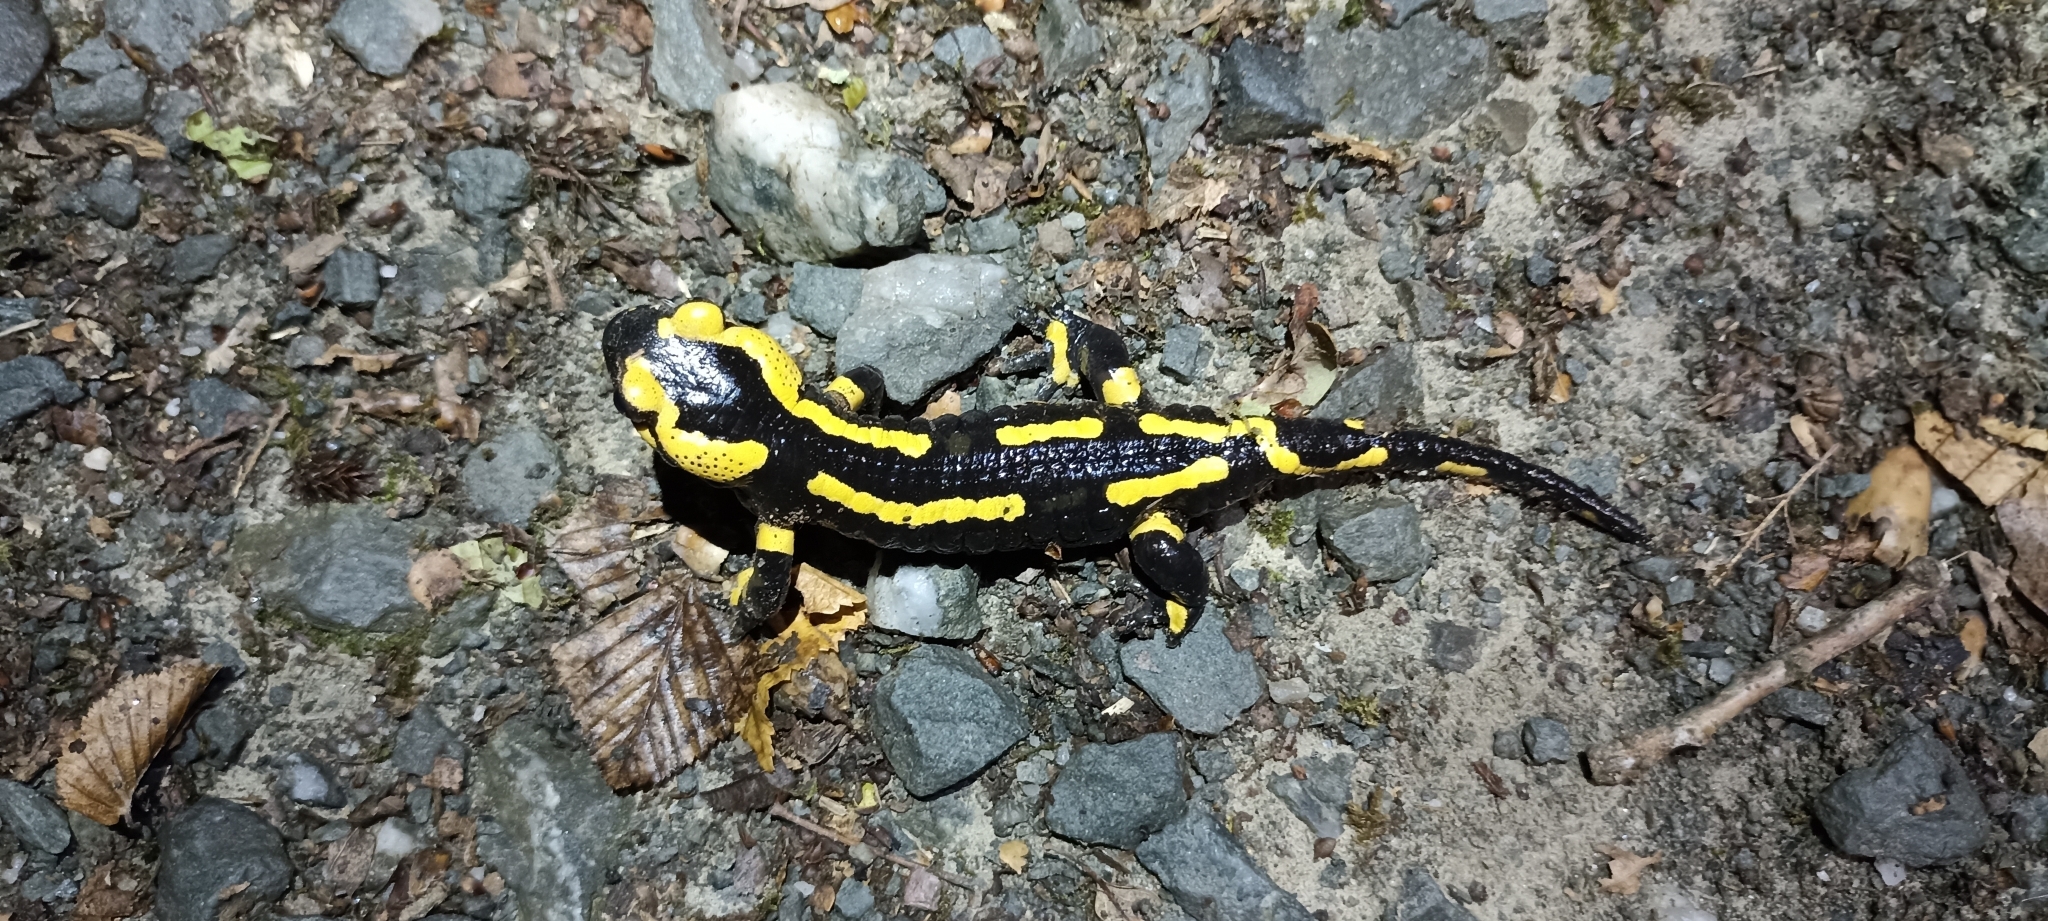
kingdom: Animalia
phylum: Chordata
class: Amphibia
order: Caudata
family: Salamandridae
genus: Salamandra
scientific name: Salamandra salamandra
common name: Fire salamander
